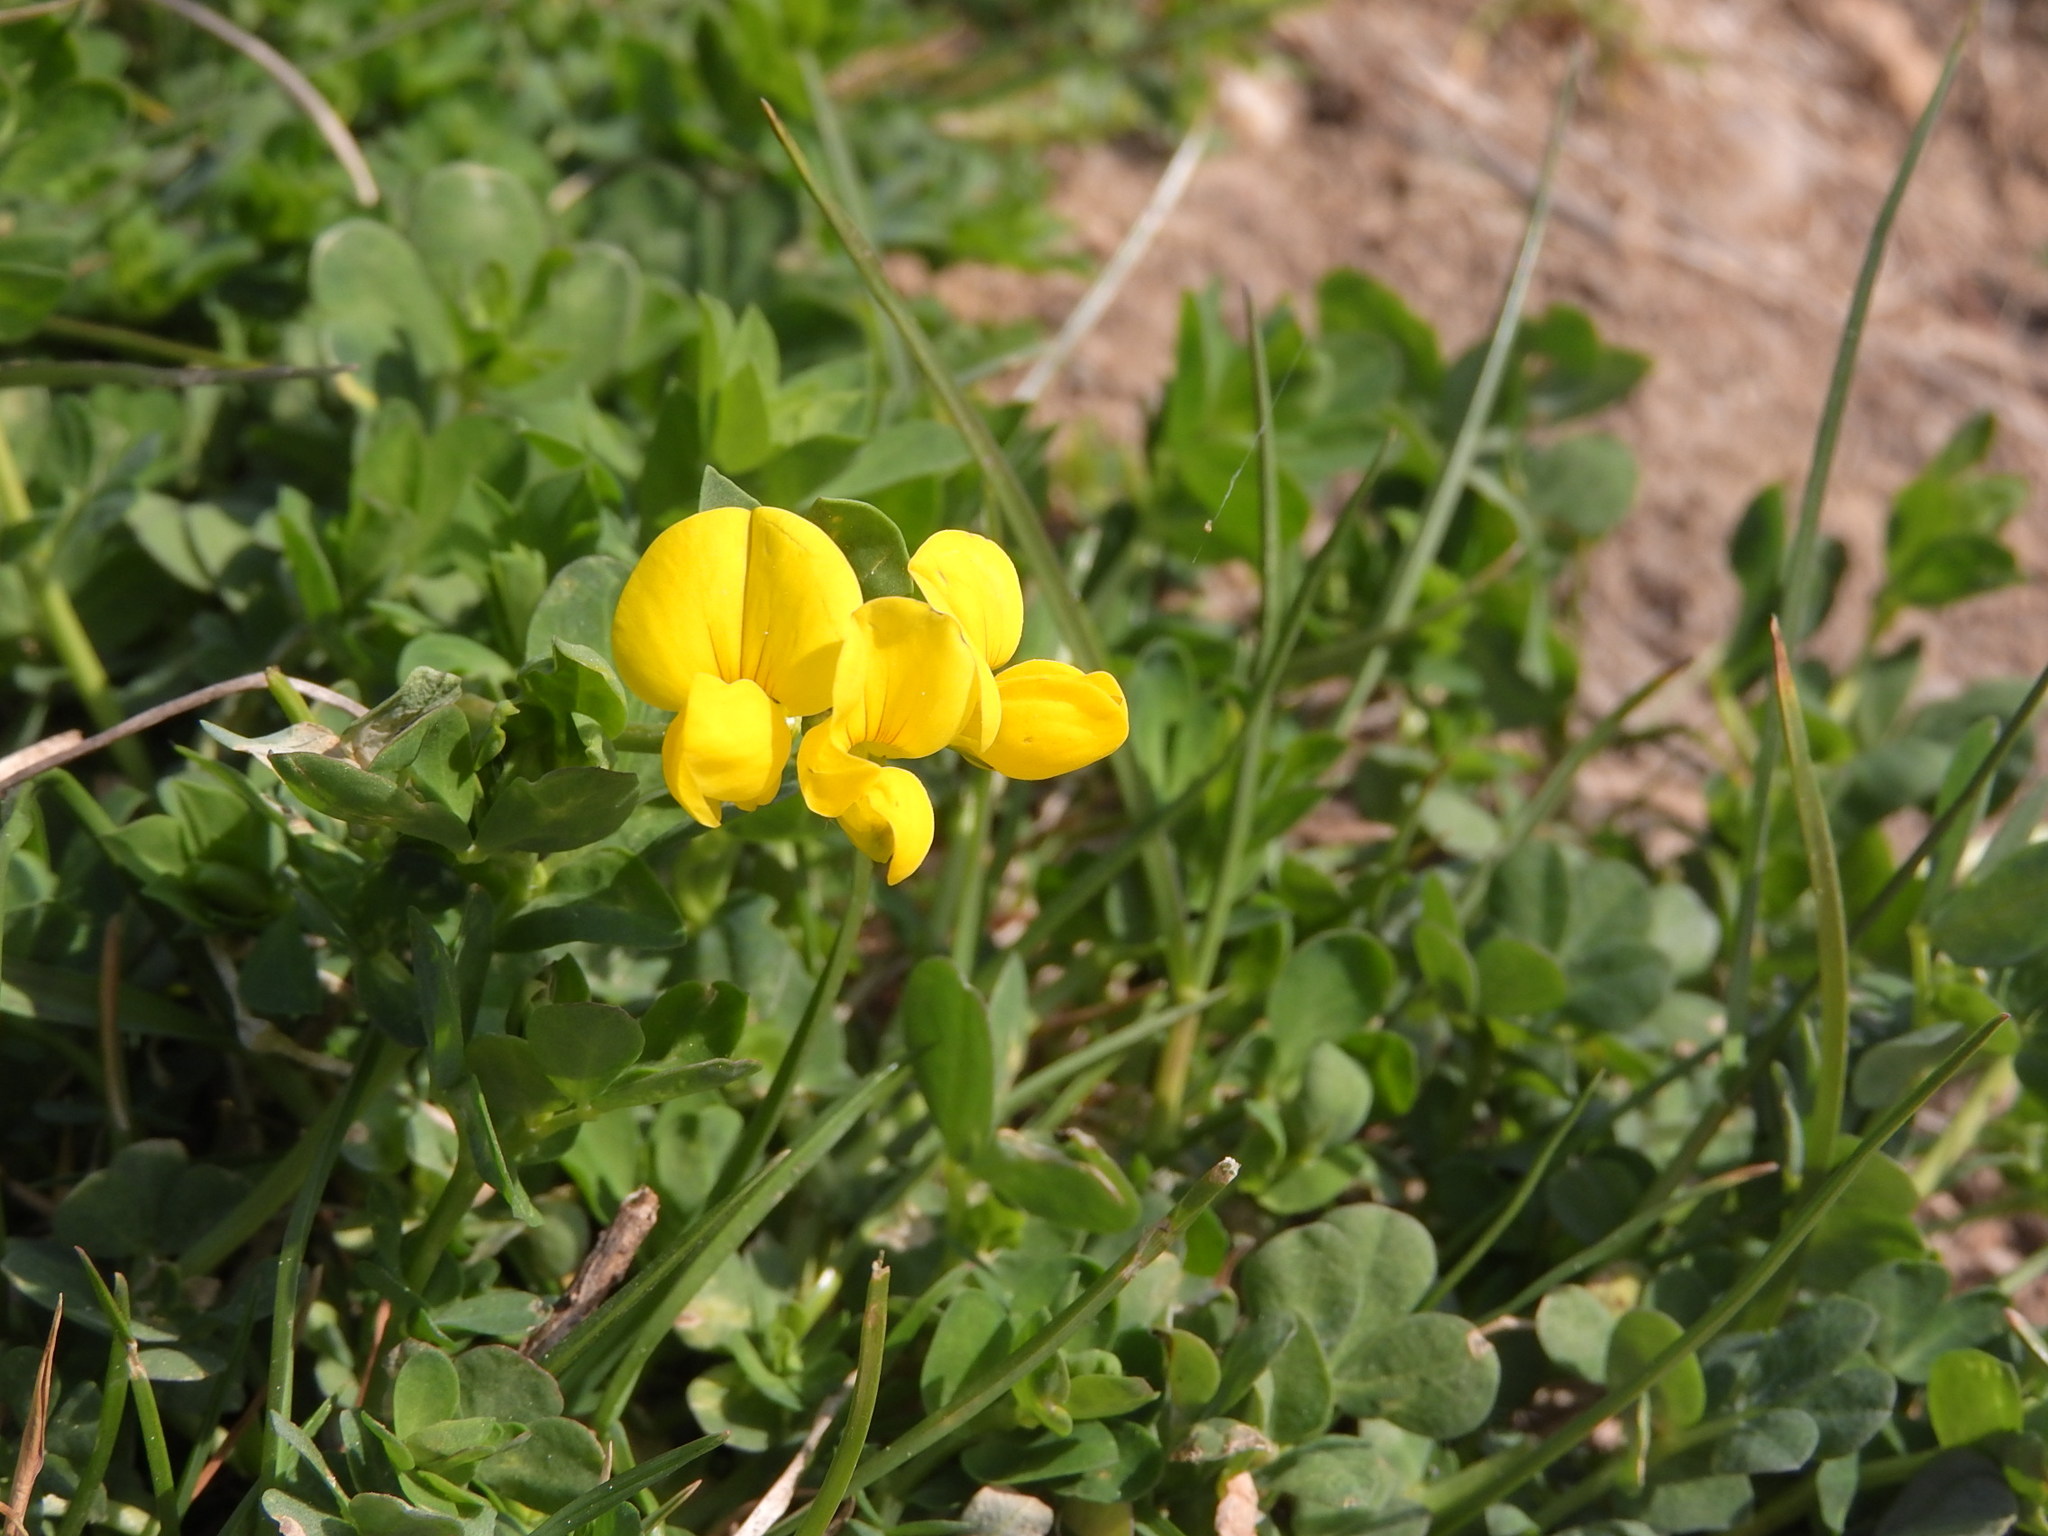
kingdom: Plantae
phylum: Tracheophyta
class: Magnoliopsida
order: Fabales
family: Fabaceae
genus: Lotus
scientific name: Lotus corniculatus
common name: Common bird's-foot-trefoil
